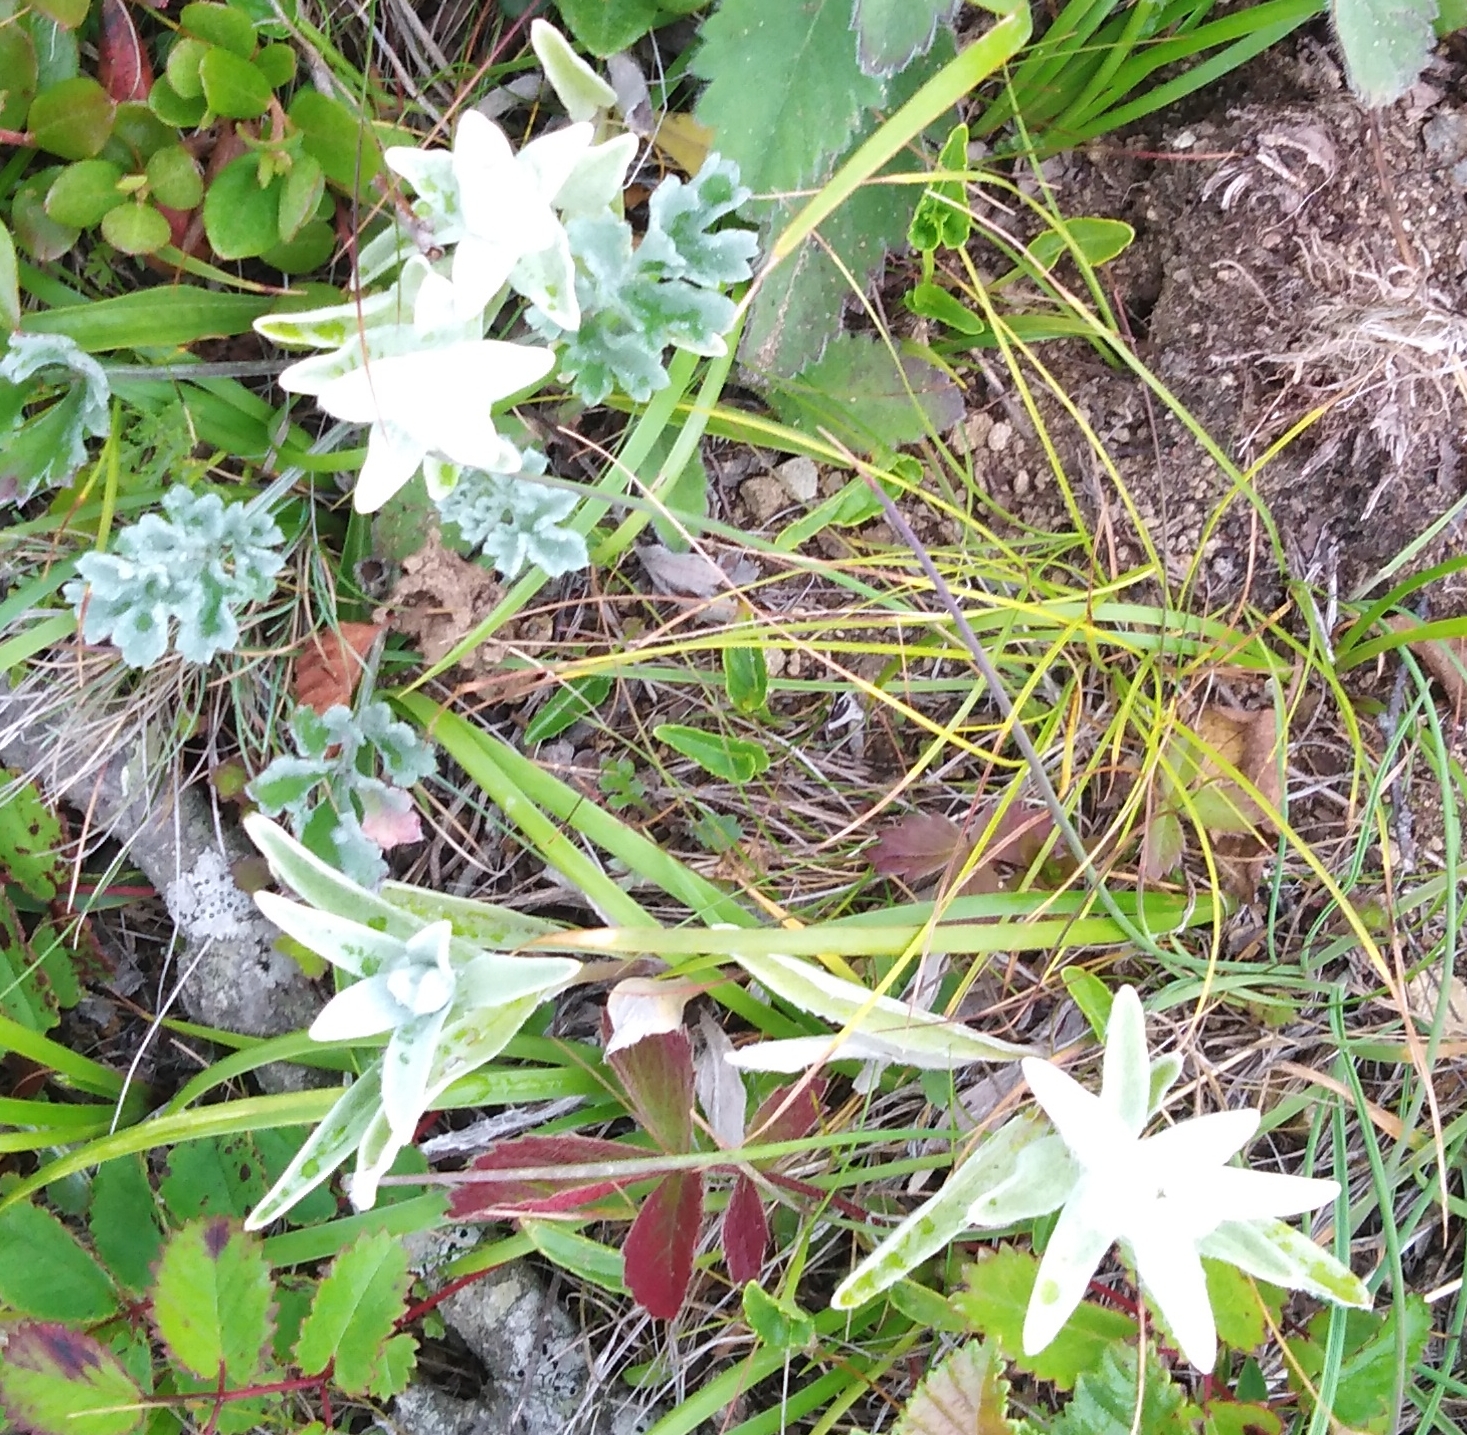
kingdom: Plantae
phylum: Tracheophyta
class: Magnoliopsida
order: Asterales
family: Asteraceae
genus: Leontopodium
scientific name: Leontopodium palibinianum
